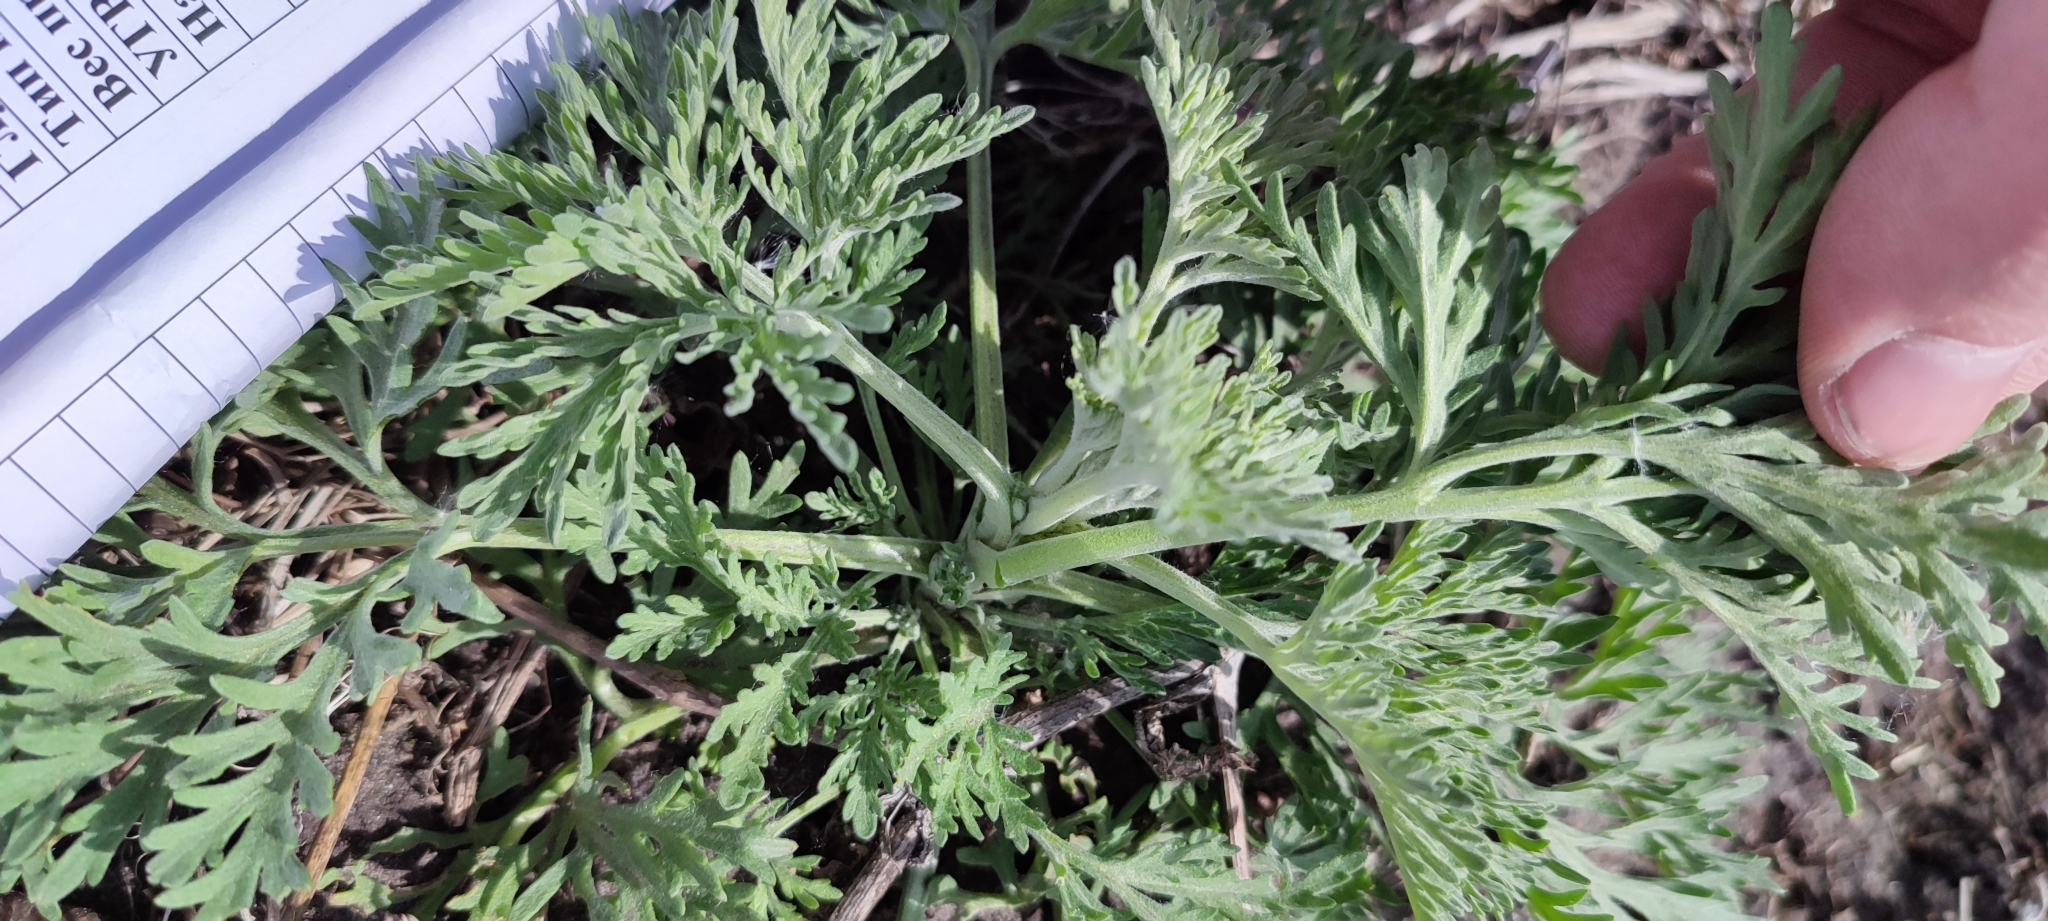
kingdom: Plantae
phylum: Tracheophyta
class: Magnoliopsida
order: Asterales
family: Asteraceae
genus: Artemisia
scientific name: Artemisia sieversiana
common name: Sieversian wormwood
